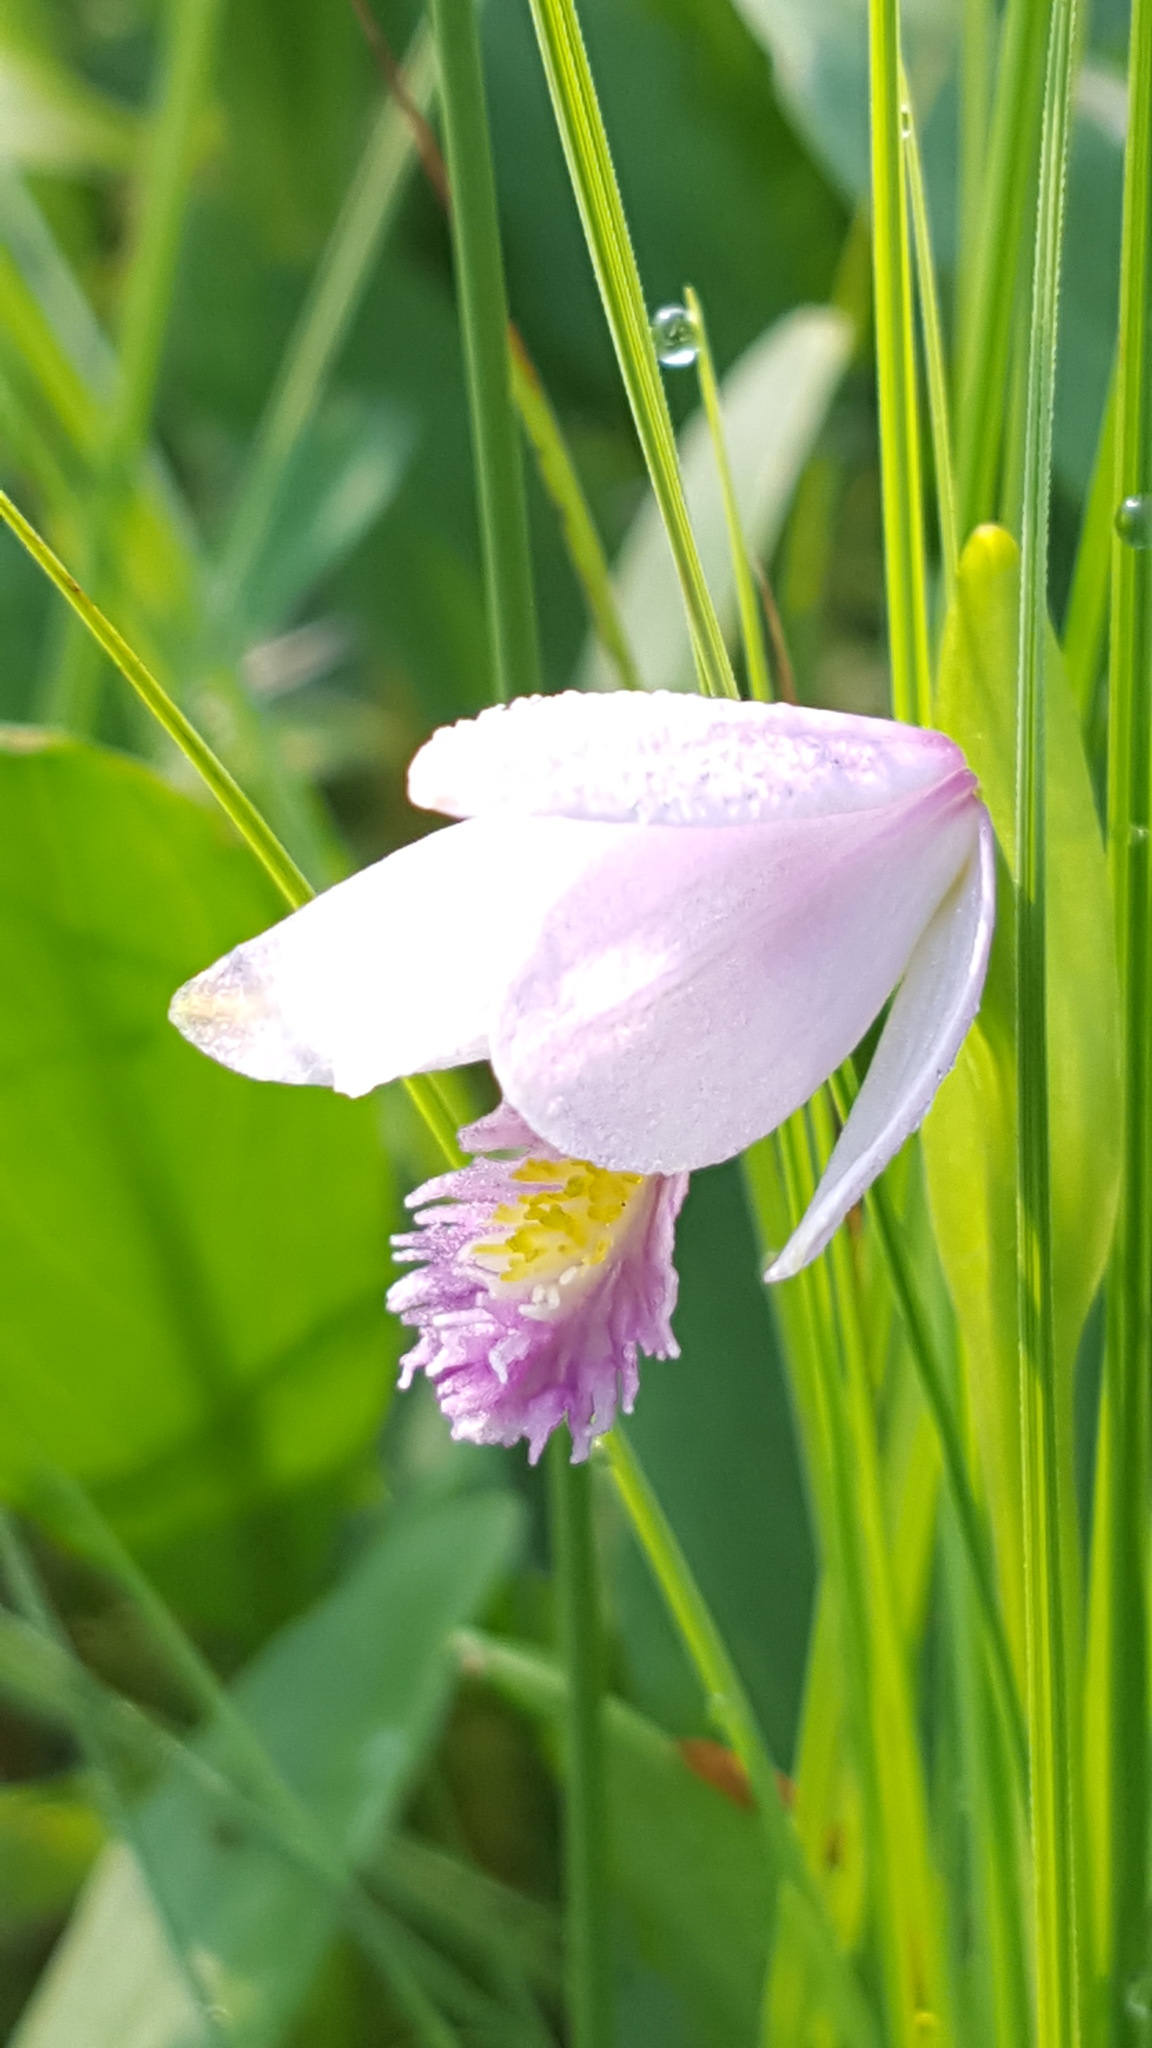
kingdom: Plantae
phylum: Tracheophyta
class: Liliopsida
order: Asparagales
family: Orchidaceae
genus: Pogonia
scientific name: Pogonia ophioglossoides
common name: Rose pogonia
